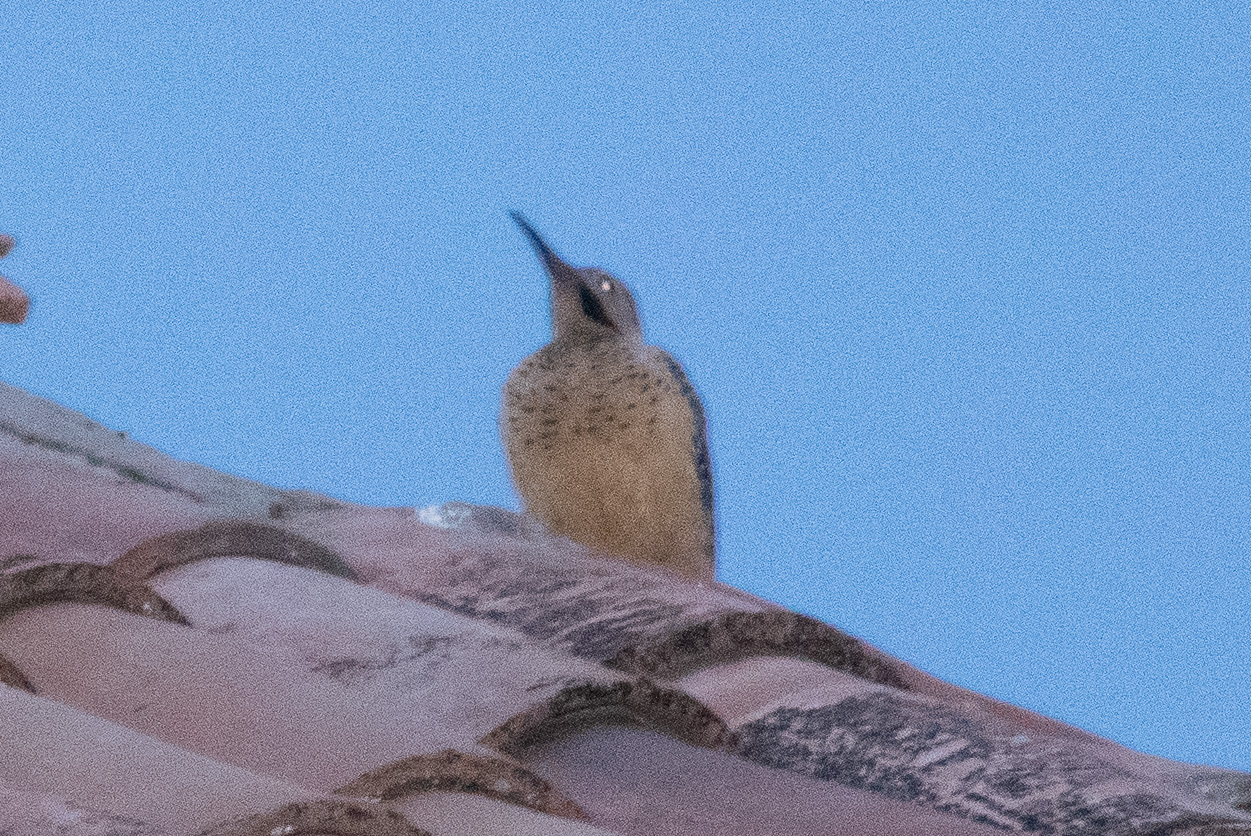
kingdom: Animalia
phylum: Chordata
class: Aves
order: Piciformes
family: Picidae
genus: Colaptes
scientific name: Colaptes rupicola
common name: Andean flicker
